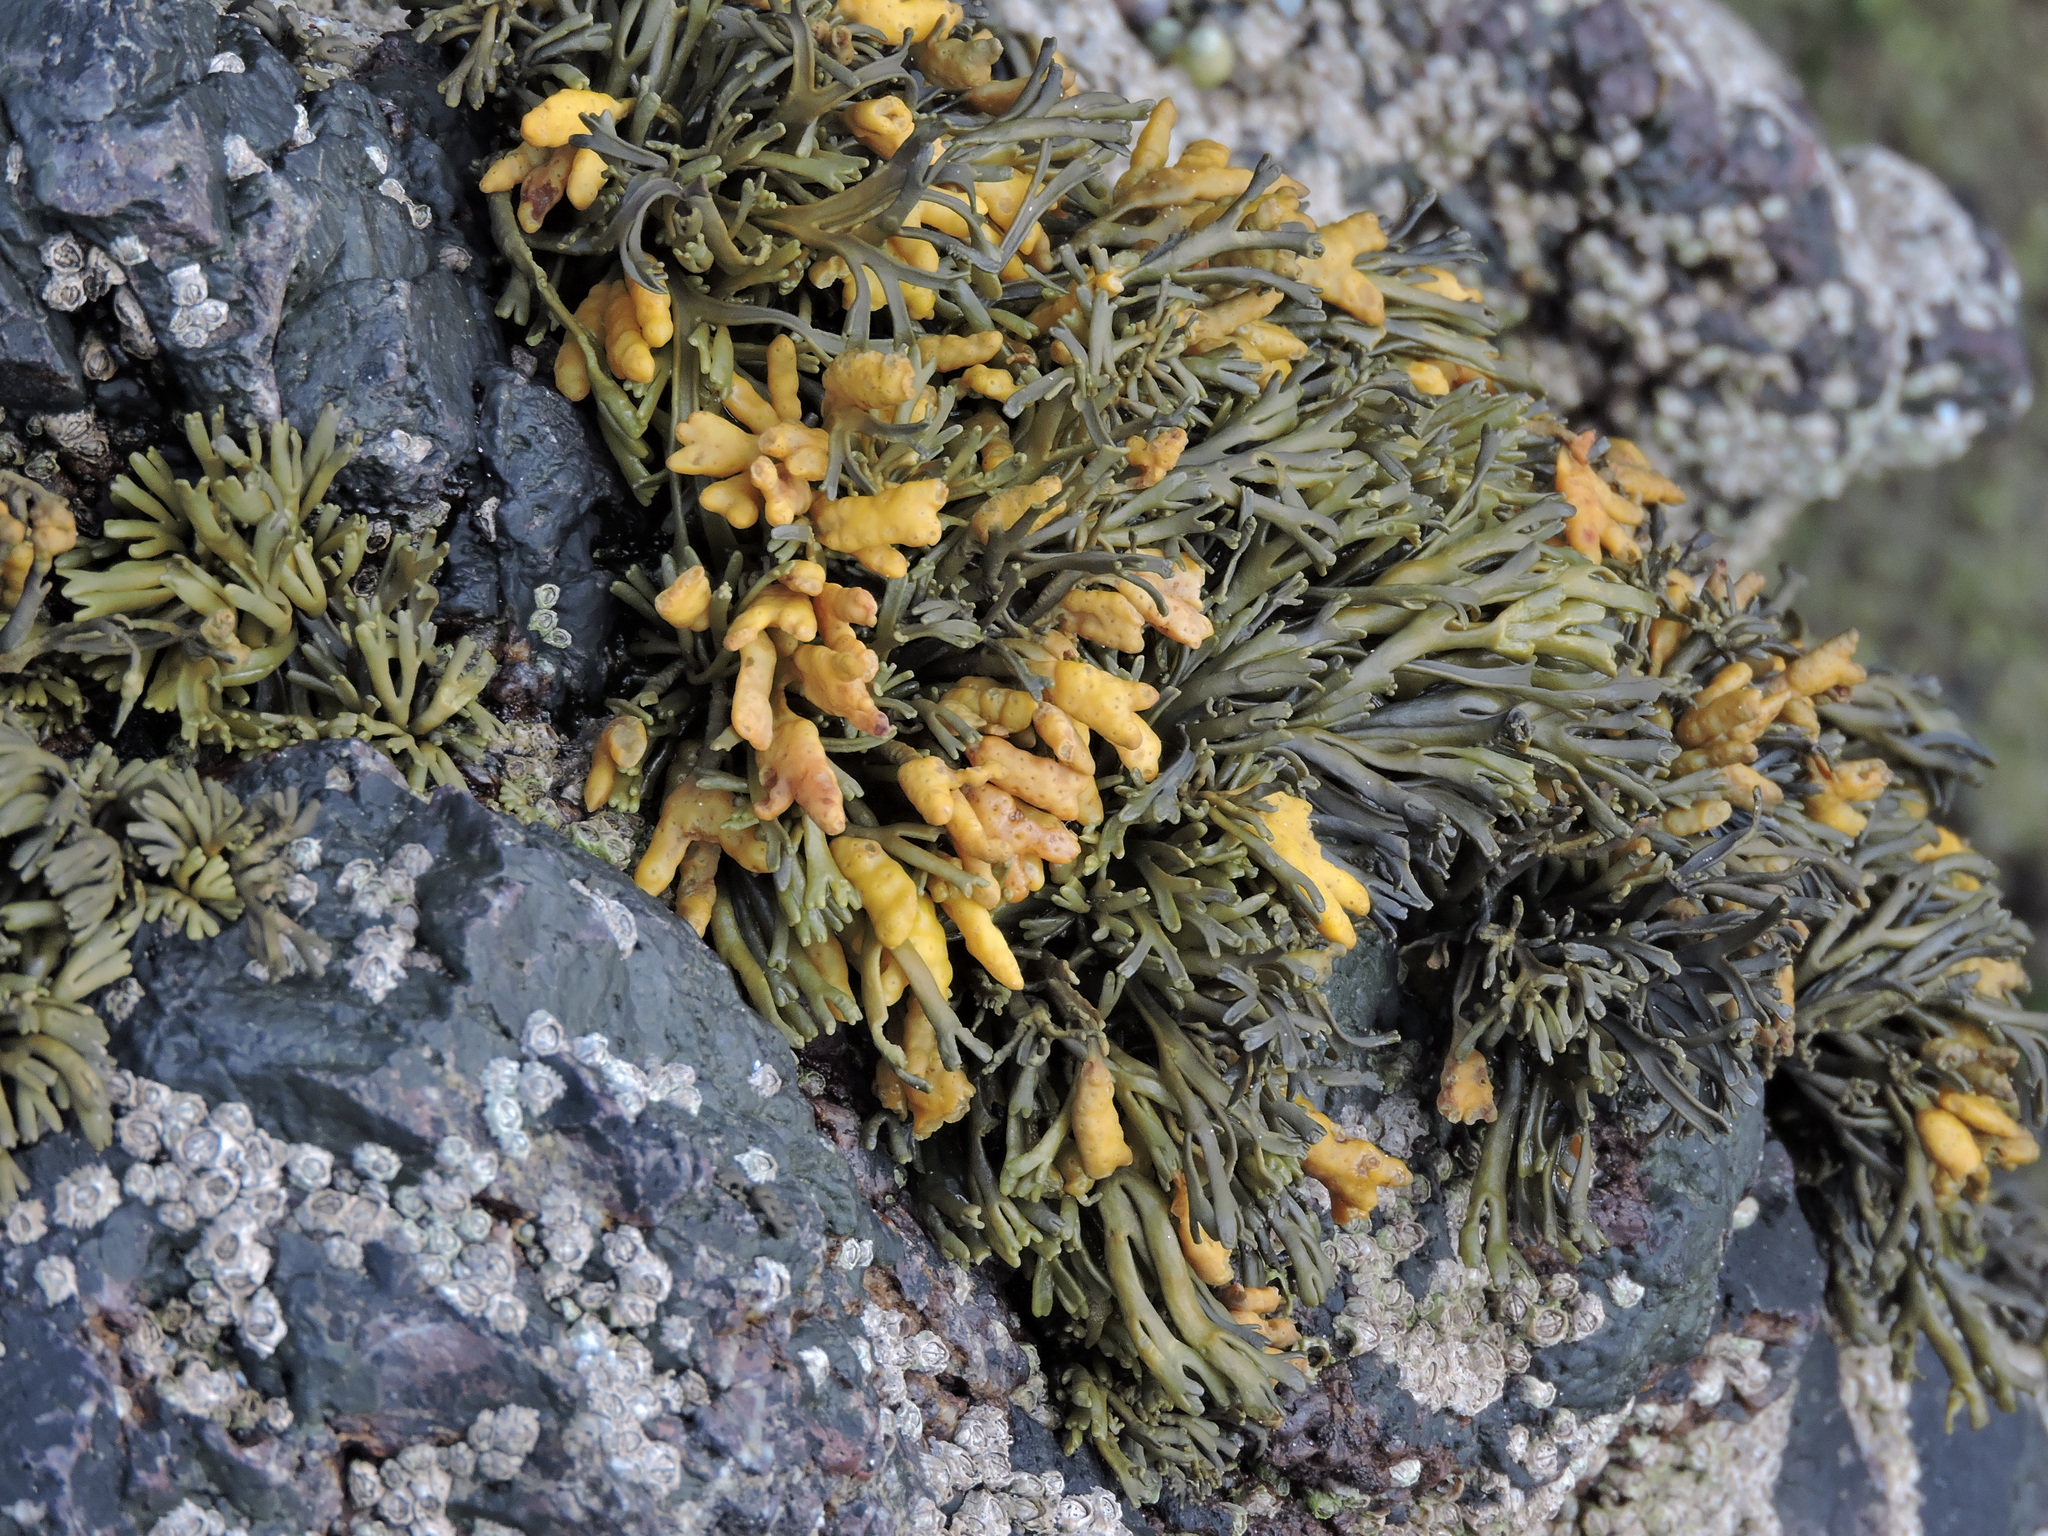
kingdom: Chromista
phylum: Ochrophyta
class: Phaeophyceae
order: Fucales
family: Fucaceae
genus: Pelvetia
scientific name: Pelvetia canaliculata
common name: Channelled wrack
